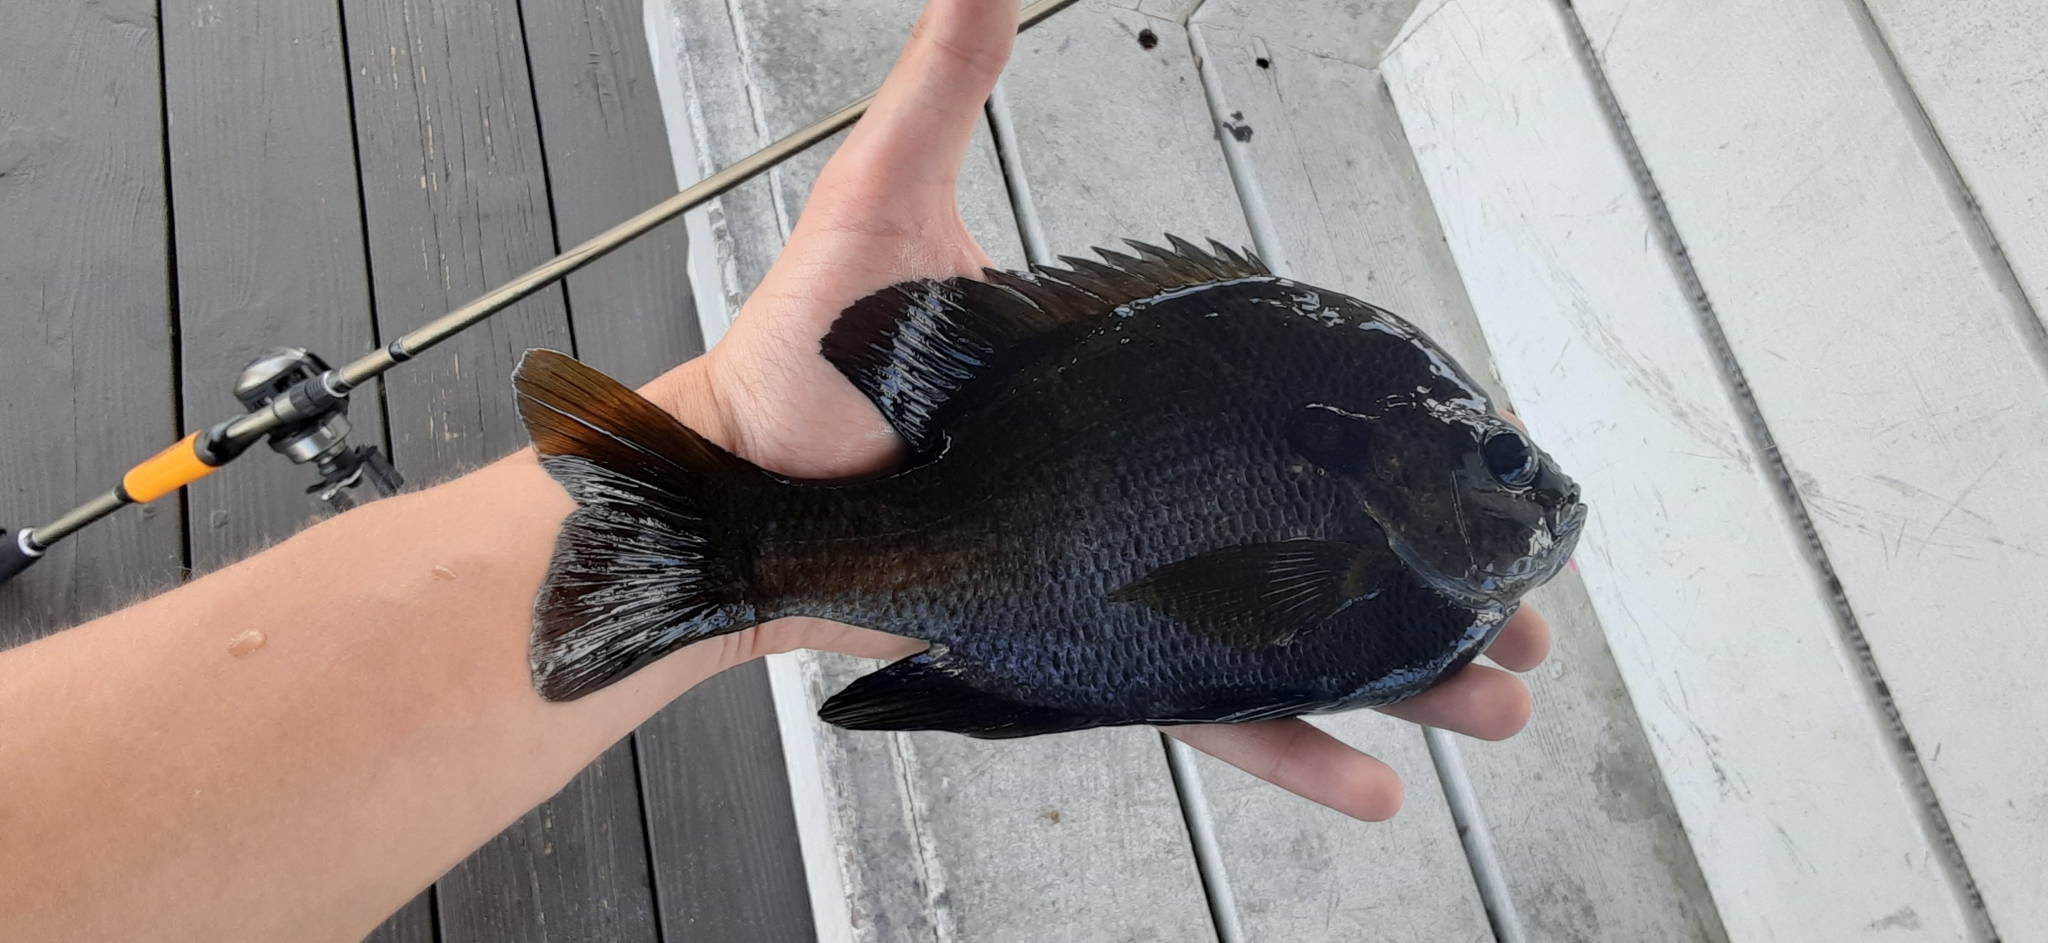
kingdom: Animalia
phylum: Chordata
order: Perciformes
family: Centrarchidae
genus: Lepomis
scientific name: Lepomis macrochirus
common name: Bluegill
